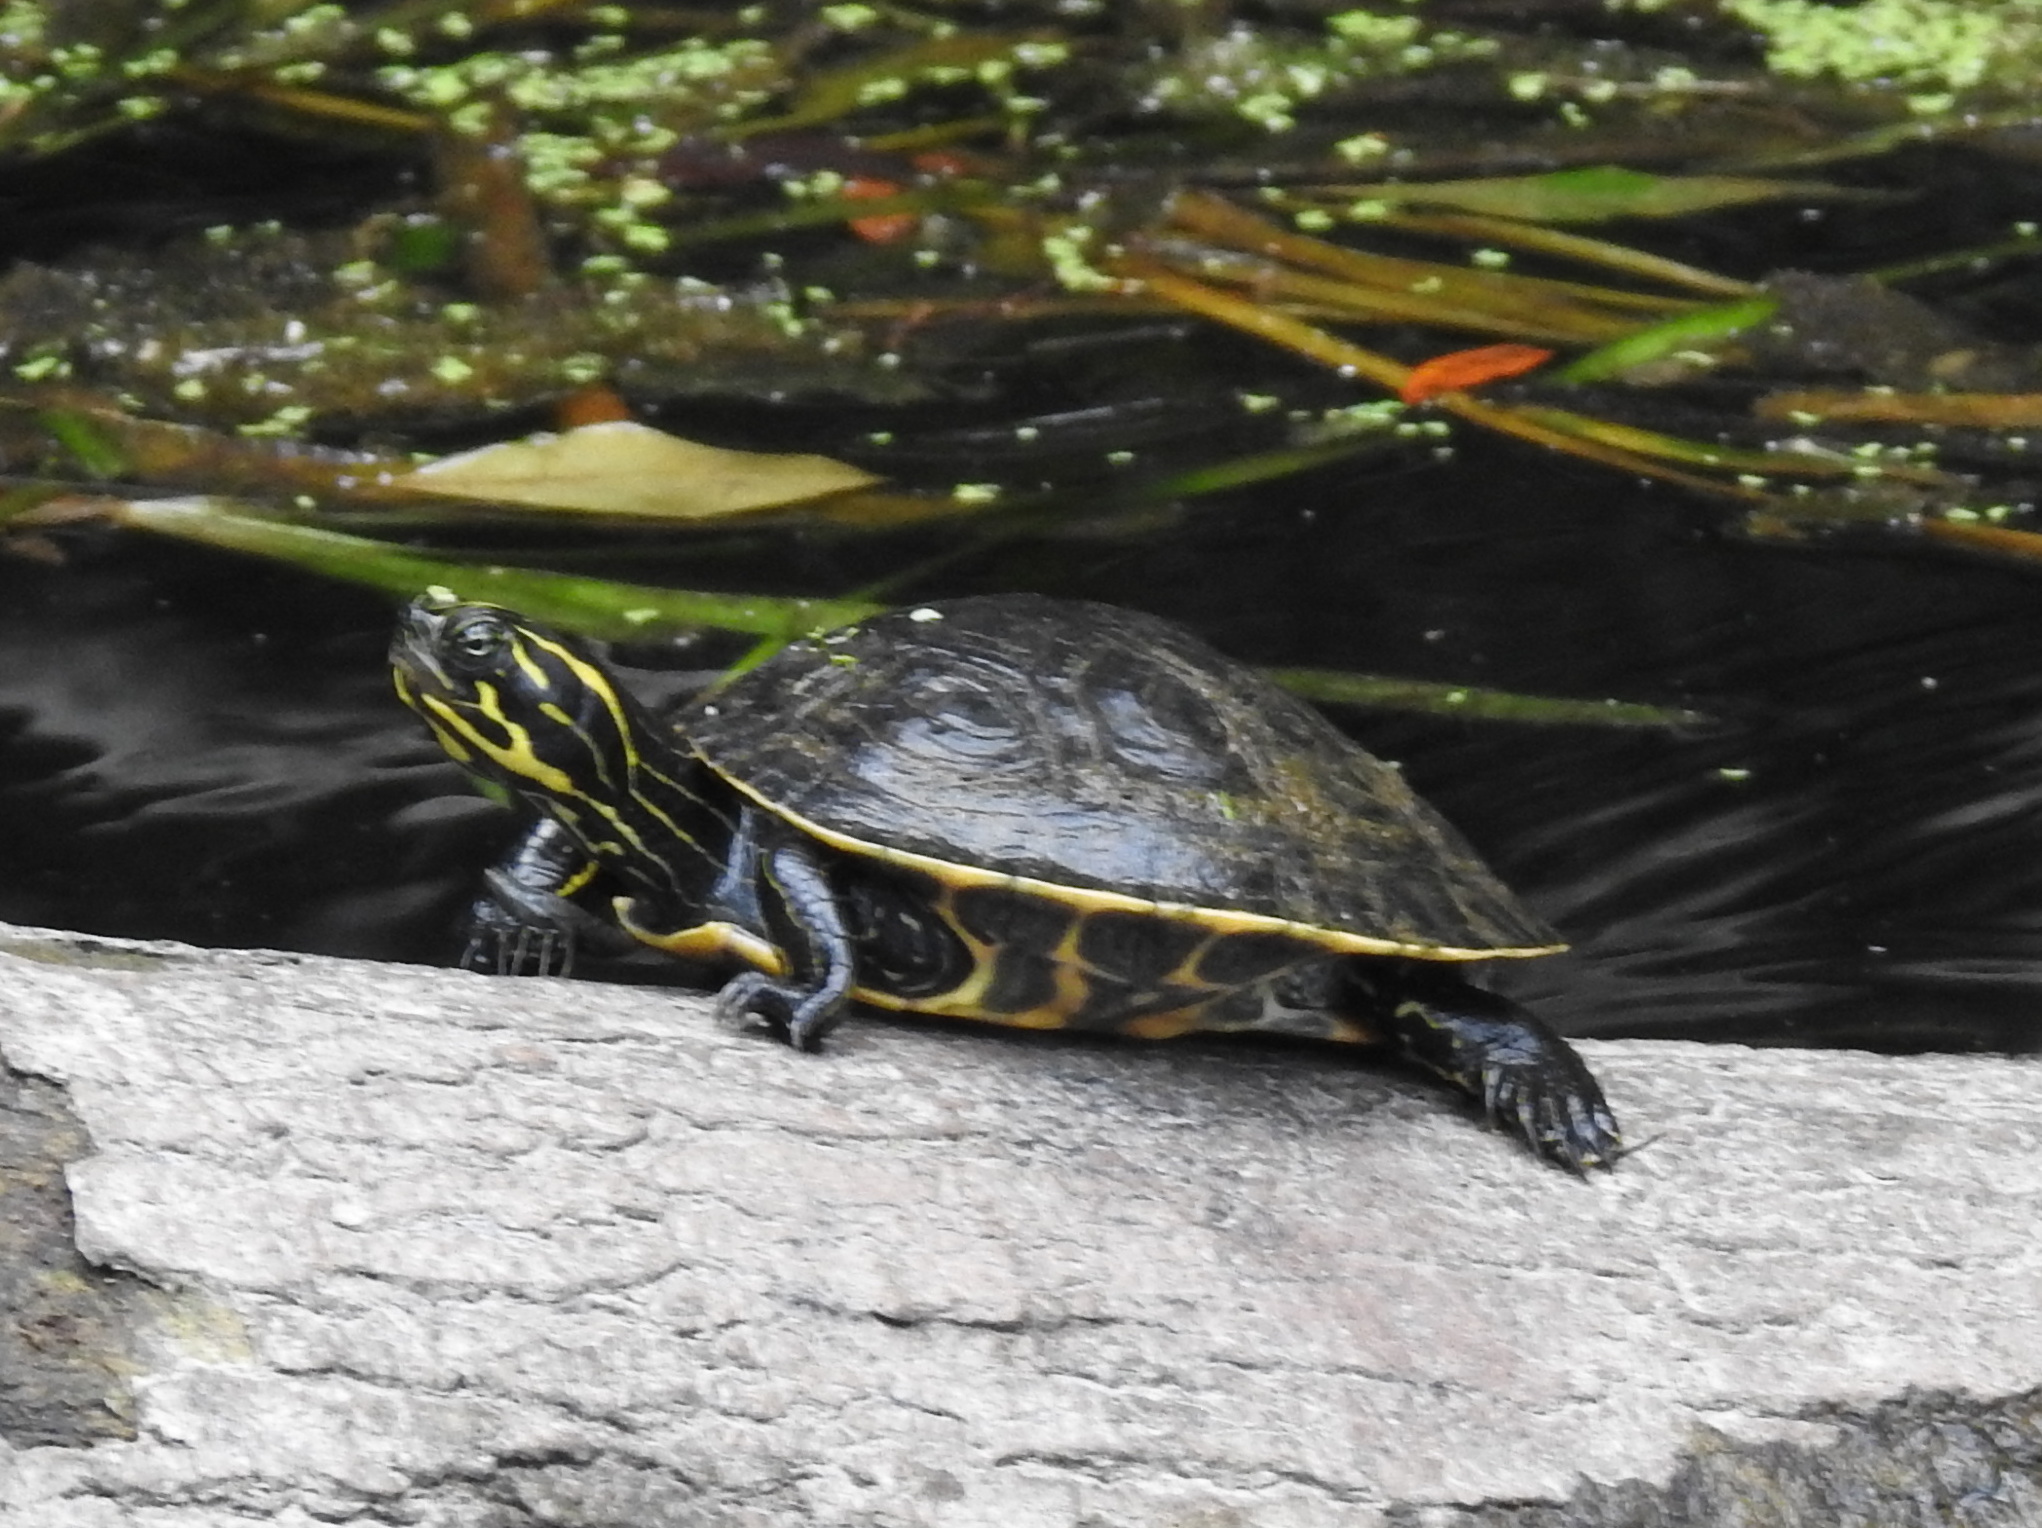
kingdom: Animalia
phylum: Chordata
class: Testudines
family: Emydidae
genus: Pseudemys
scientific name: Pseudemys concinna
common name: Eastern river cooter
